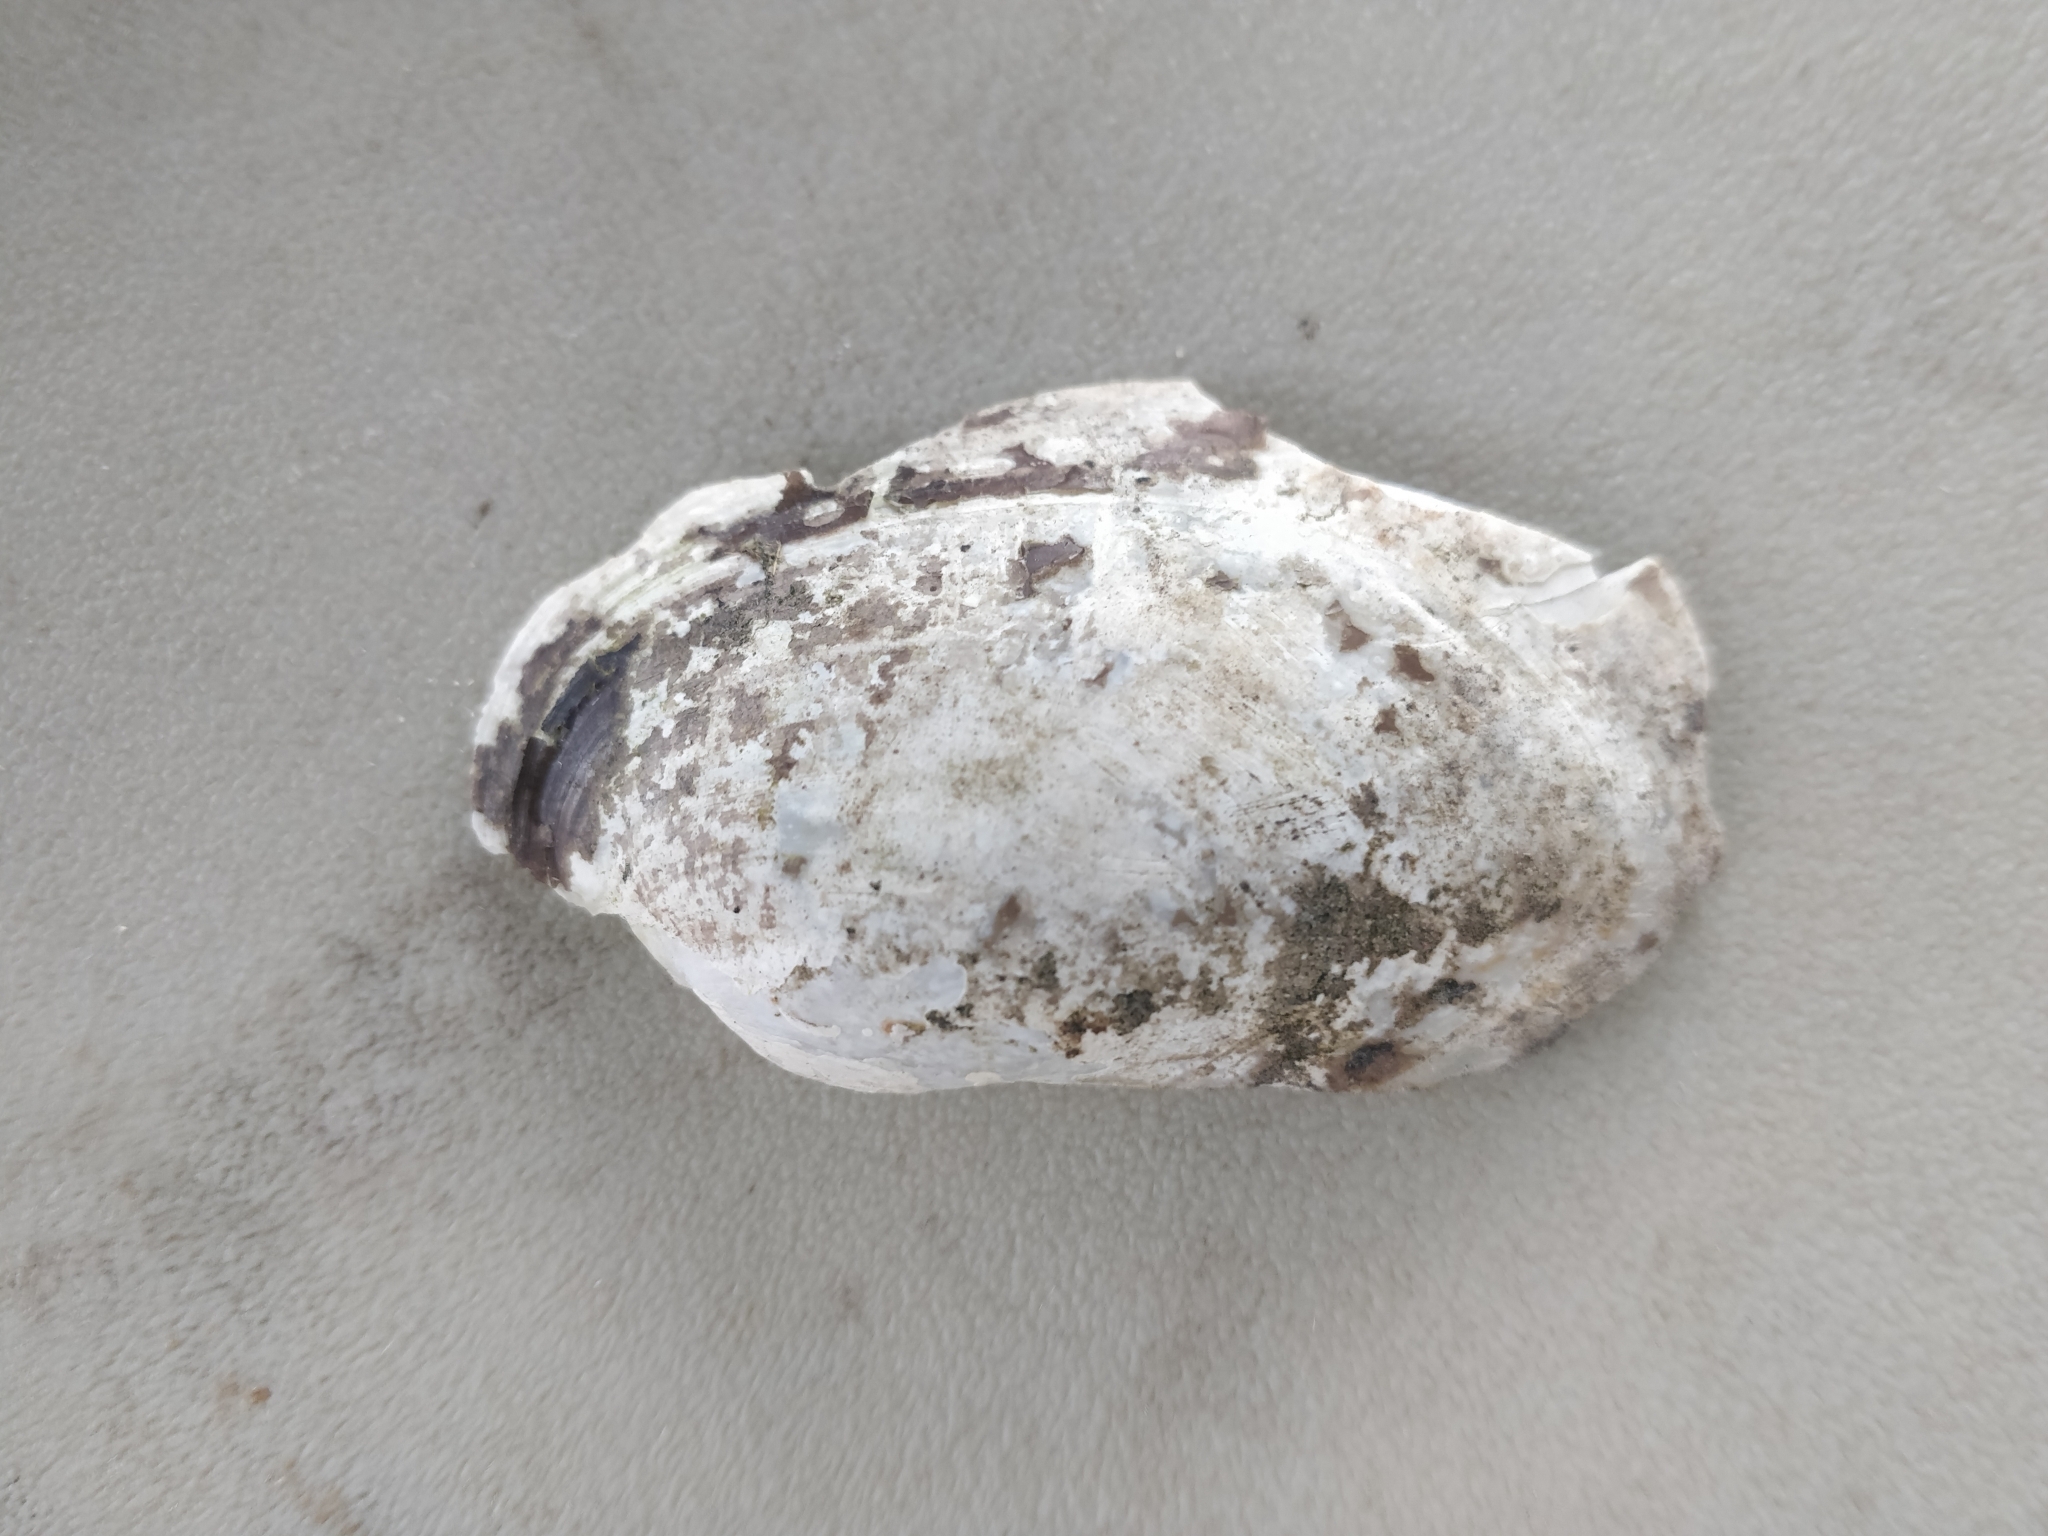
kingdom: Animalia
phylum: Mollusca
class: Bivalvia
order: Unionida
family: Unionidae
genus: Lampsilis
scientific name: Lampsilis siliquoidea
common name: Fatmucket
